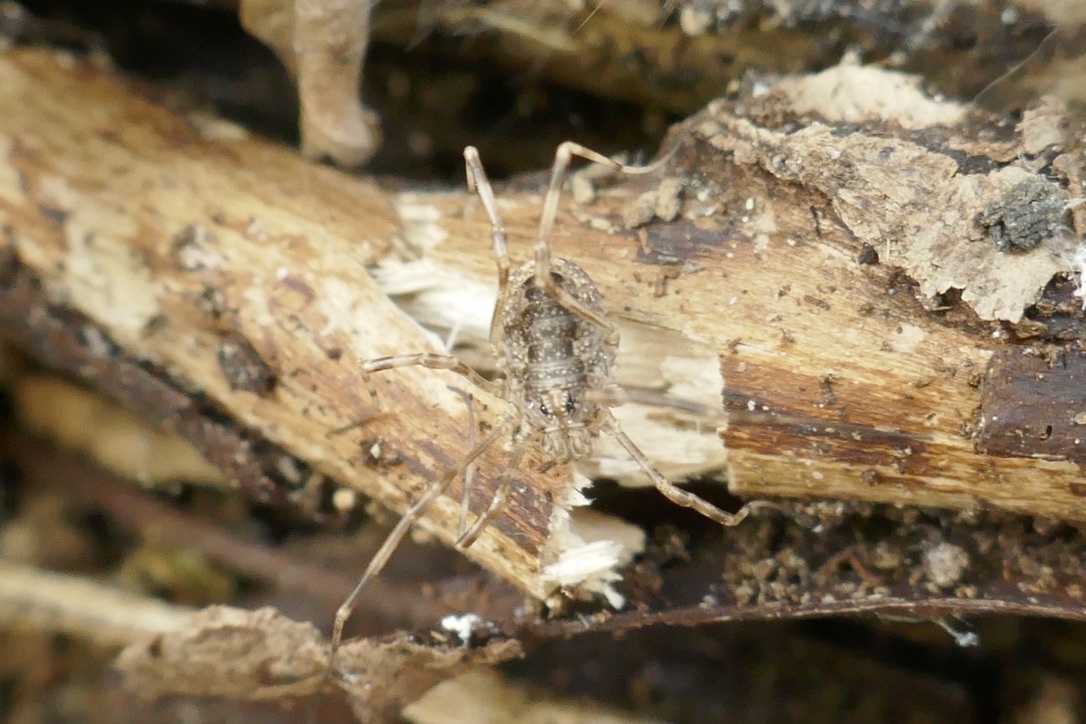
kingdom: Animalia
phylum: Arthropoda
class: Arachnida
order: Opiliones
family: Phalangiidae
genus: Rilaena
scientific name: Rilaena triangularis
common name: Spring harvestman
